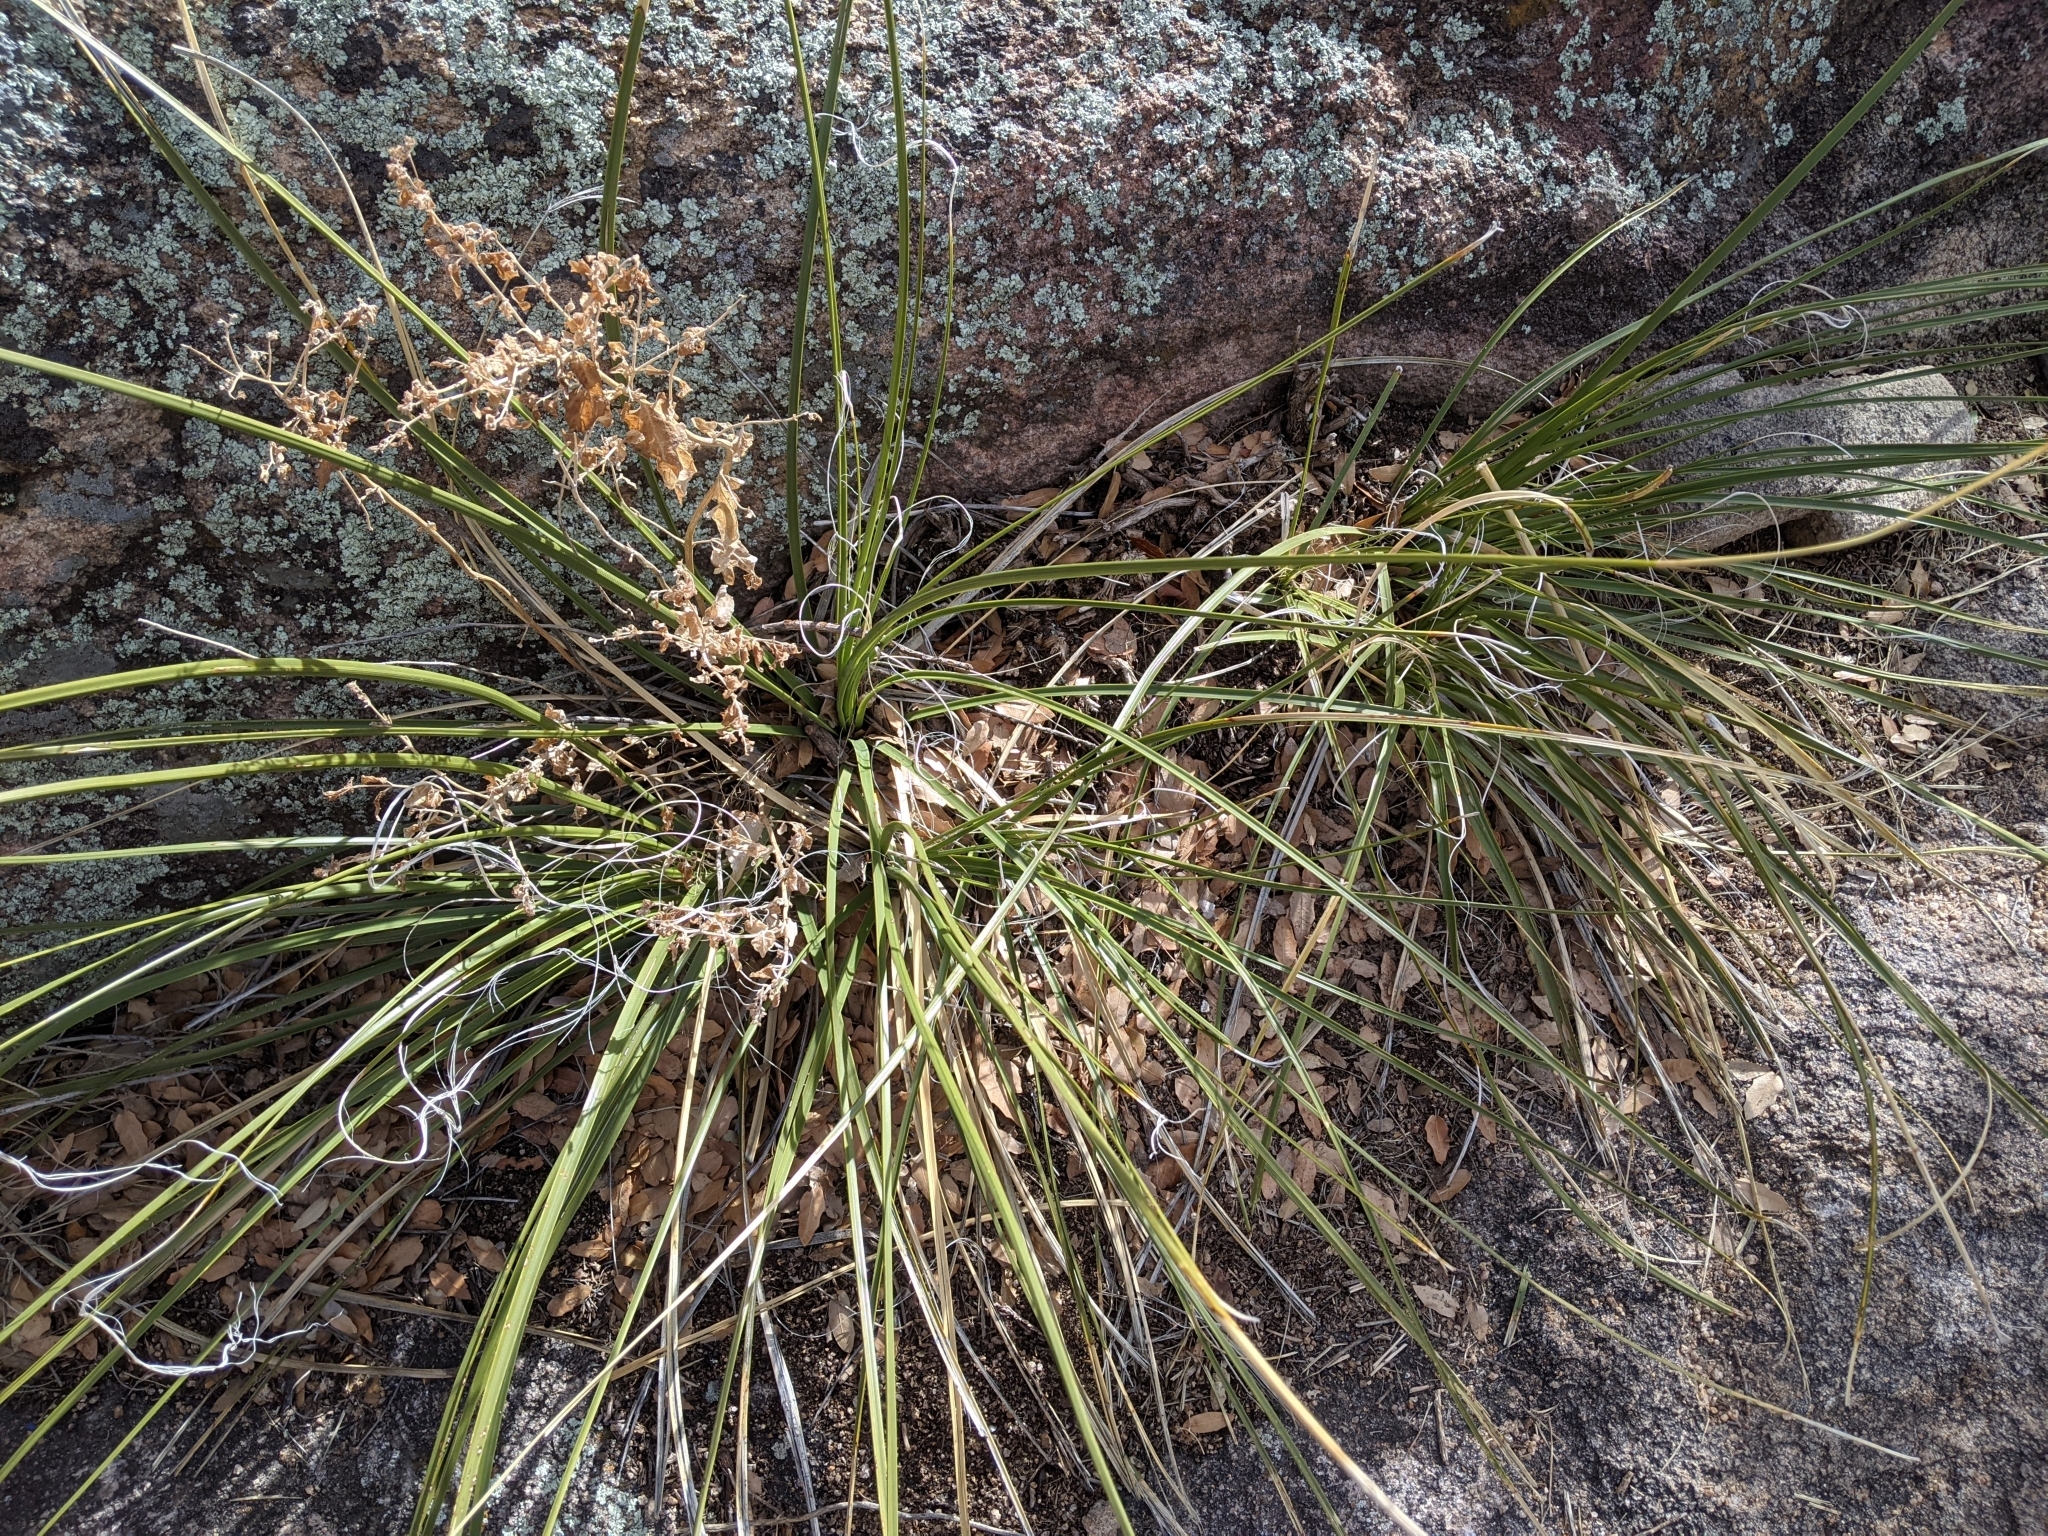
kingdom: Plantae
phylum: Tracheophyta
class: Liliopsida
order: Asparagales
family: Asparagaceae
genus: Nolina
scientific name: Nolina microcarpa
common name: Bear-grass
